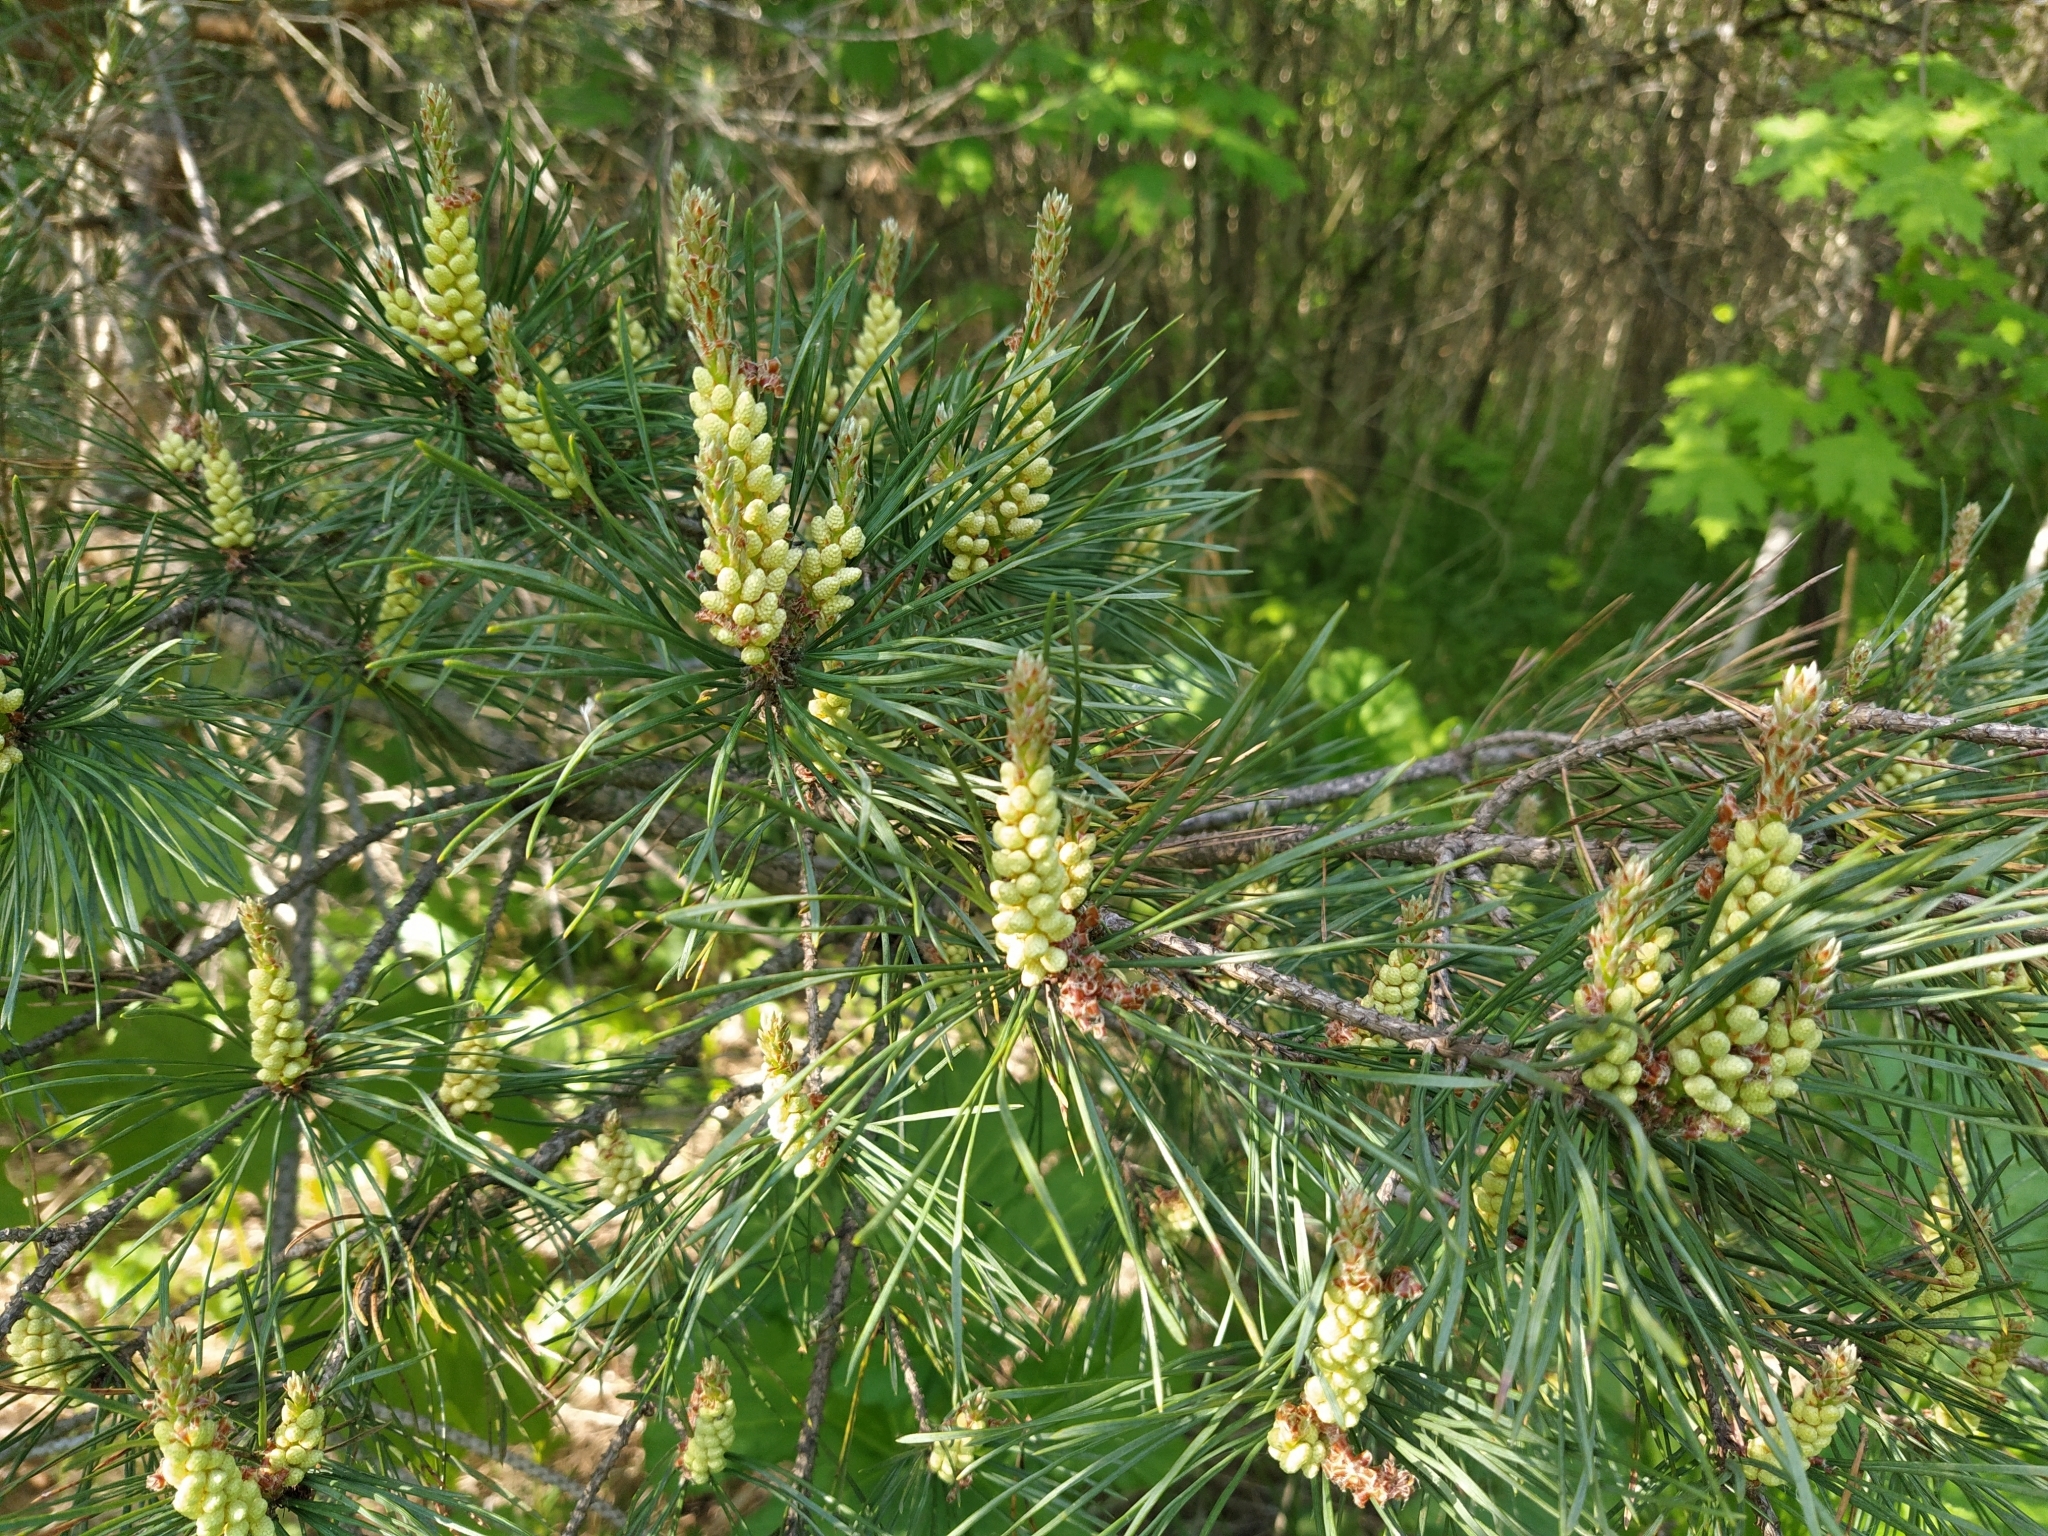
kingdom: Plantae
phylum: Tracheophyta
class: Pinopsida
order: Pinales
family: Pinaceae
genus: Pinus
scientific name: Pinus sylvestris
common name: Scots pine
